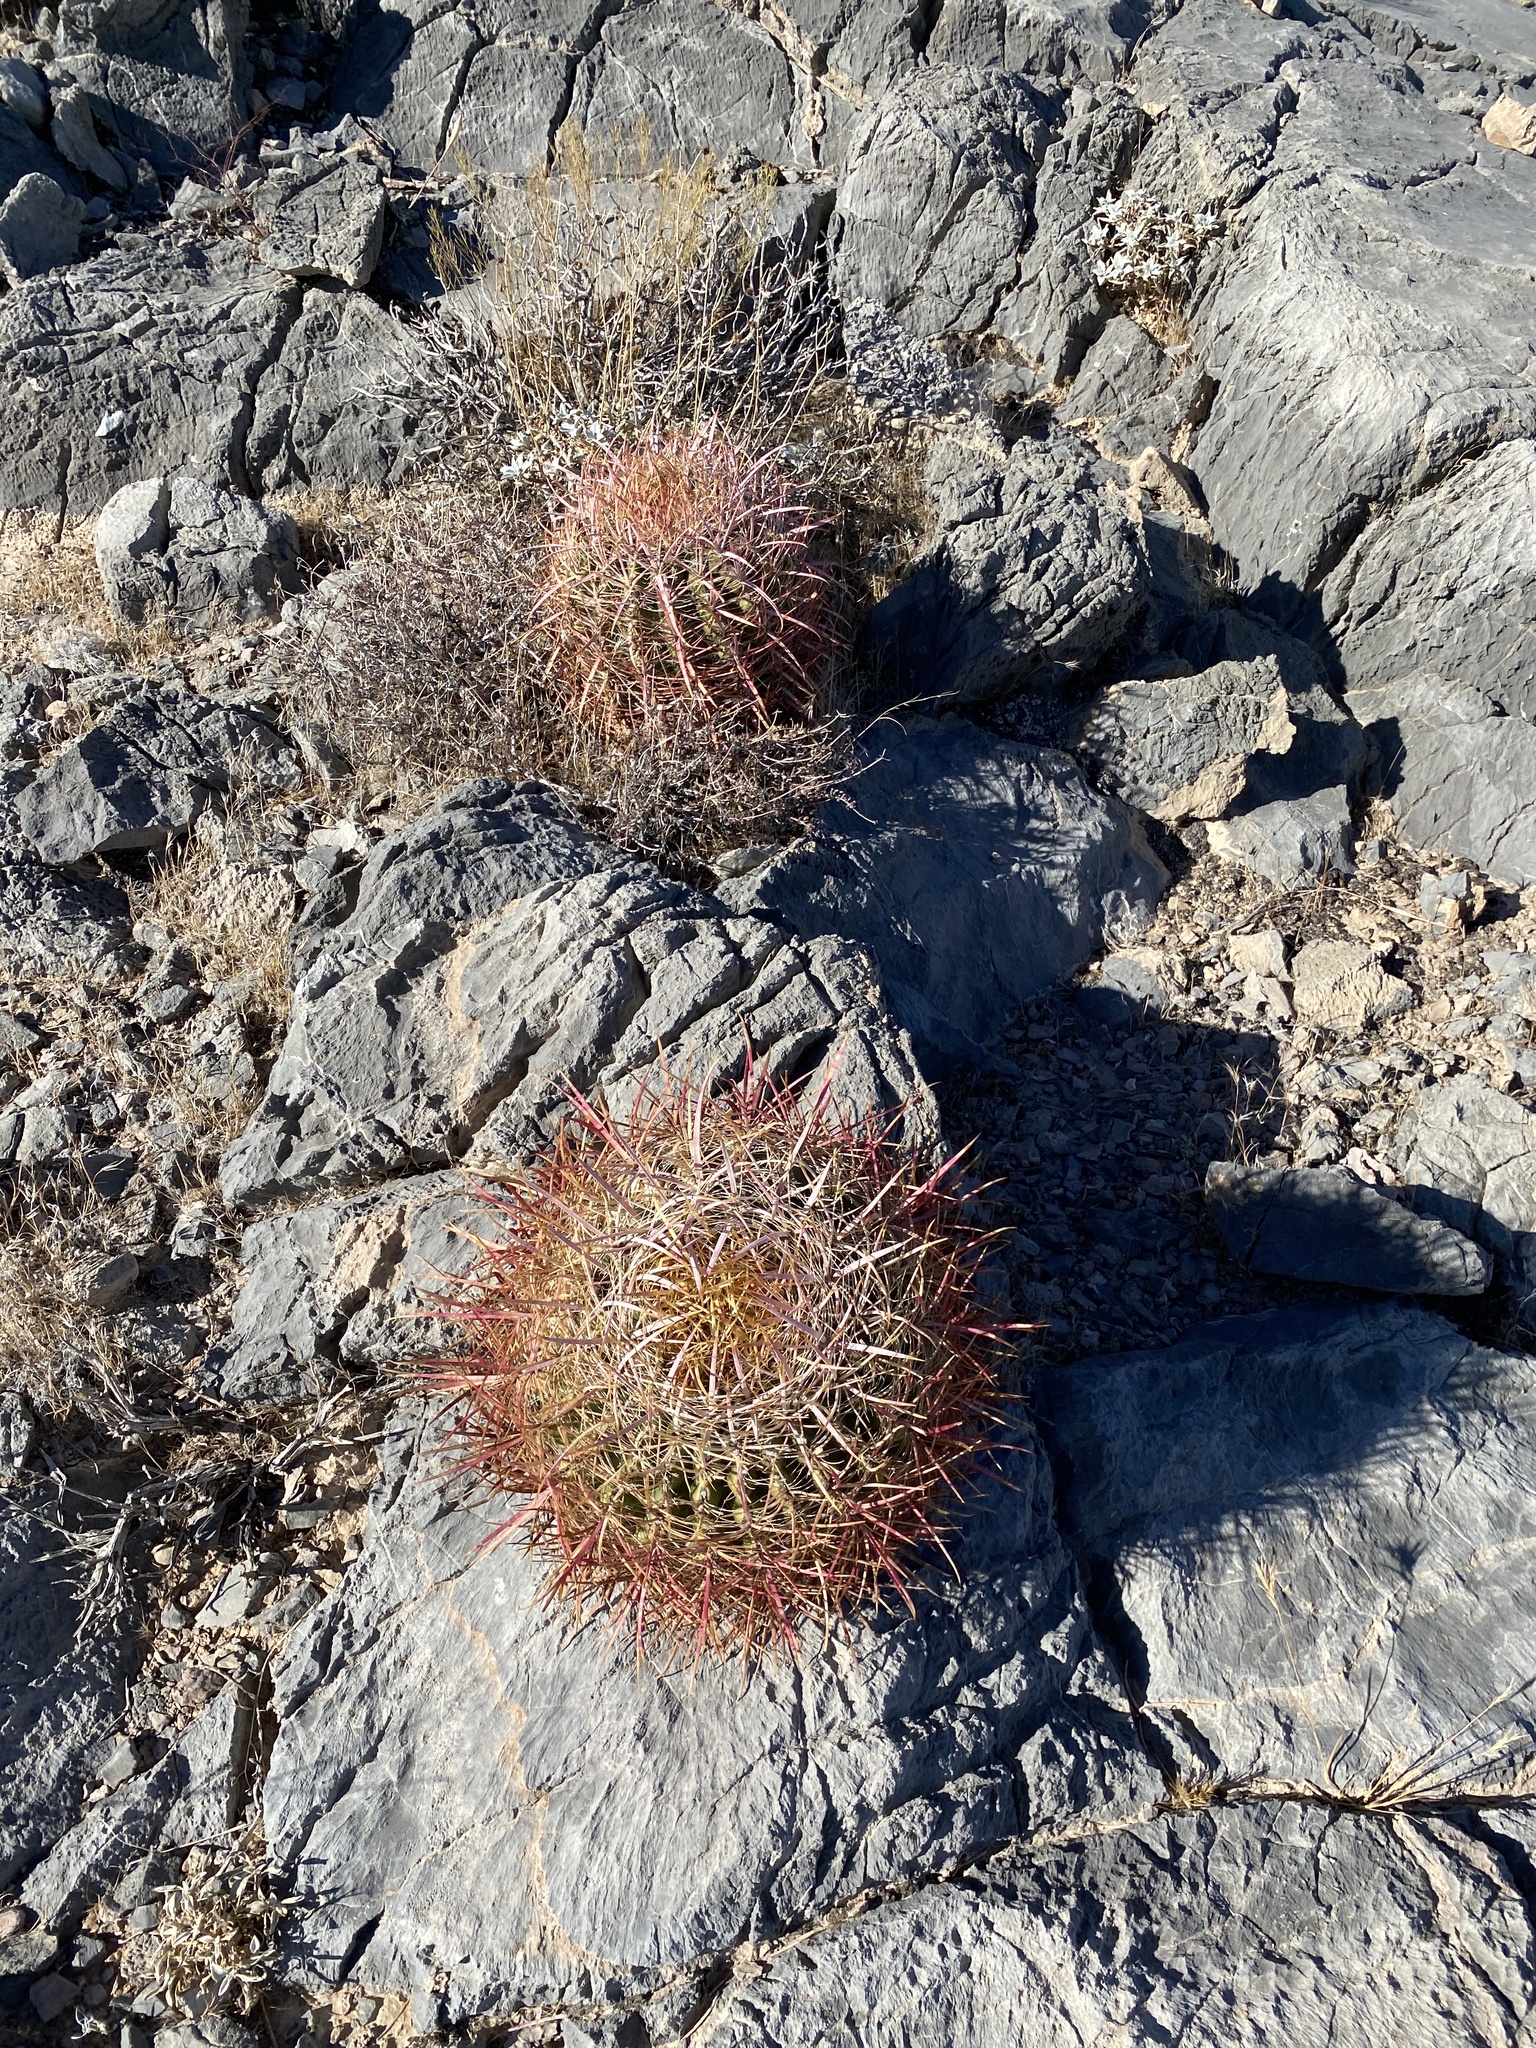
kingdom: Plantae
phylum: Tracheophyta
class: Magnoliopsida
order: Caryophyllales
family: Cactaceae
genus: Ferocactus
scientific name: Ferocactus cylindraceus
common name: California barrel cactus
